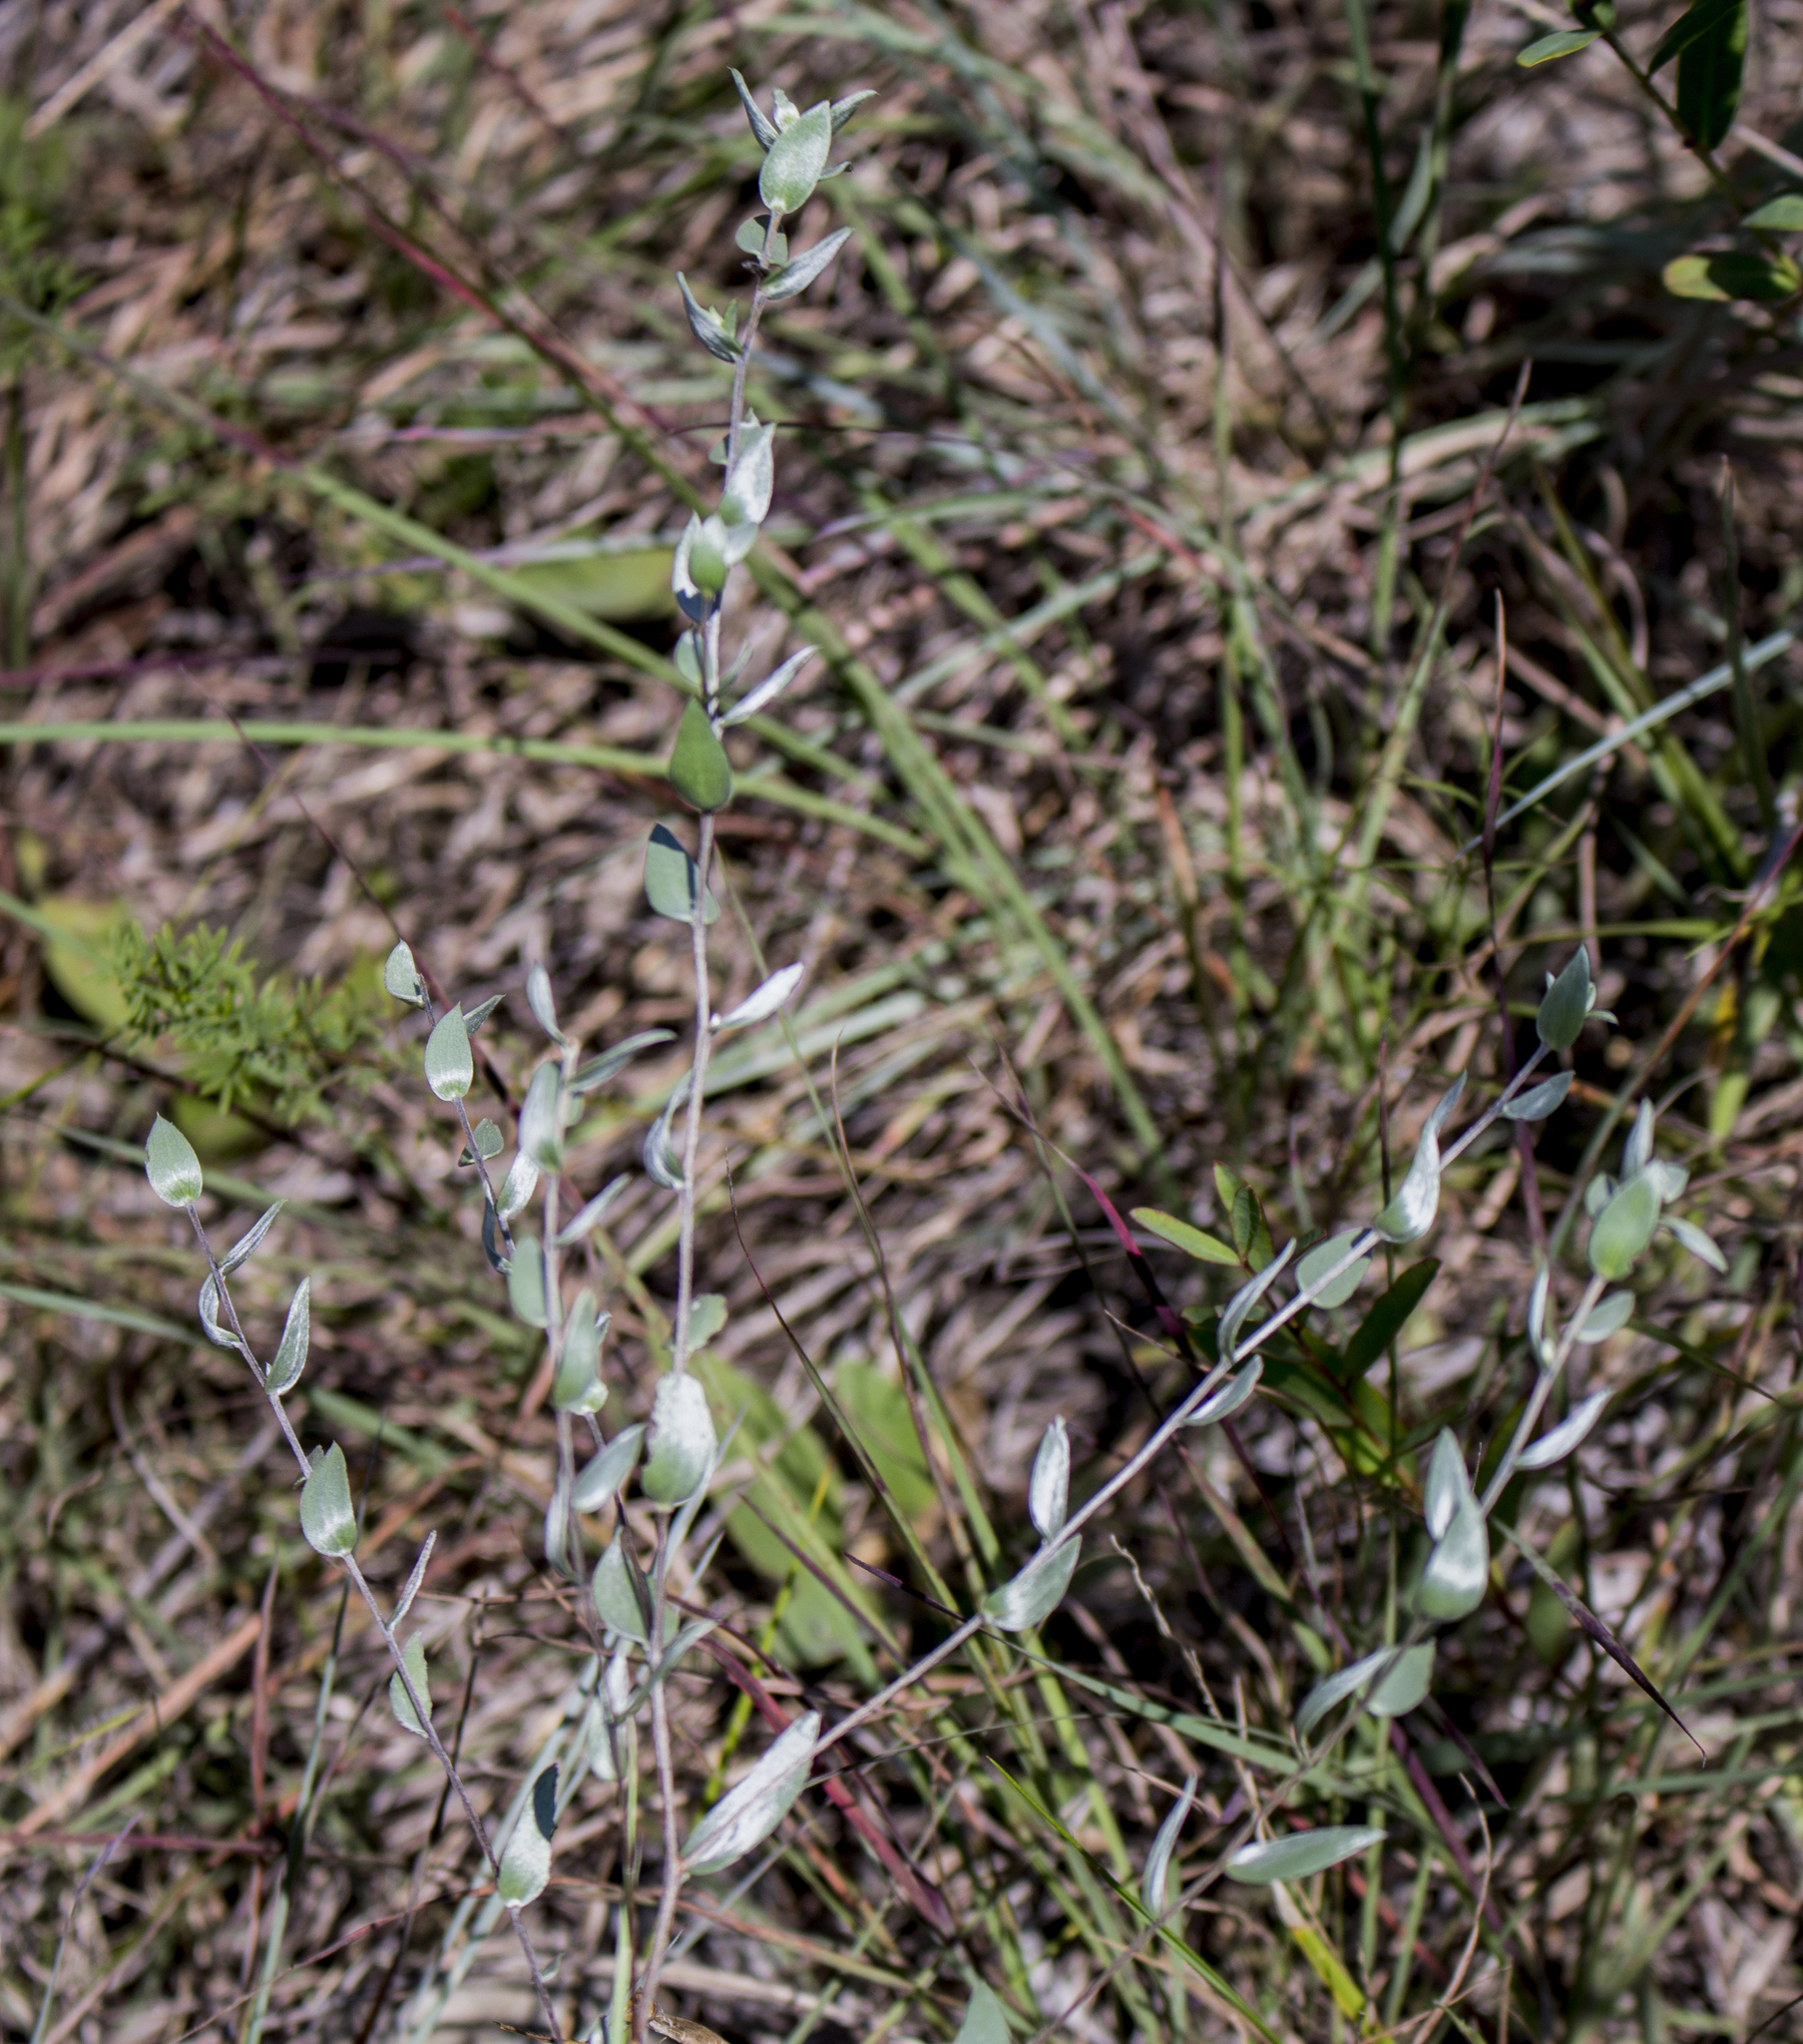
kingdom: Plantae
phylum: Tracheophyta
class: Magnoliopsida
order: Asterales
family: Asteraceae
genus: Symphyotrichum
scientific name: Symphyotrichum sericeum
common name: Silky aster
